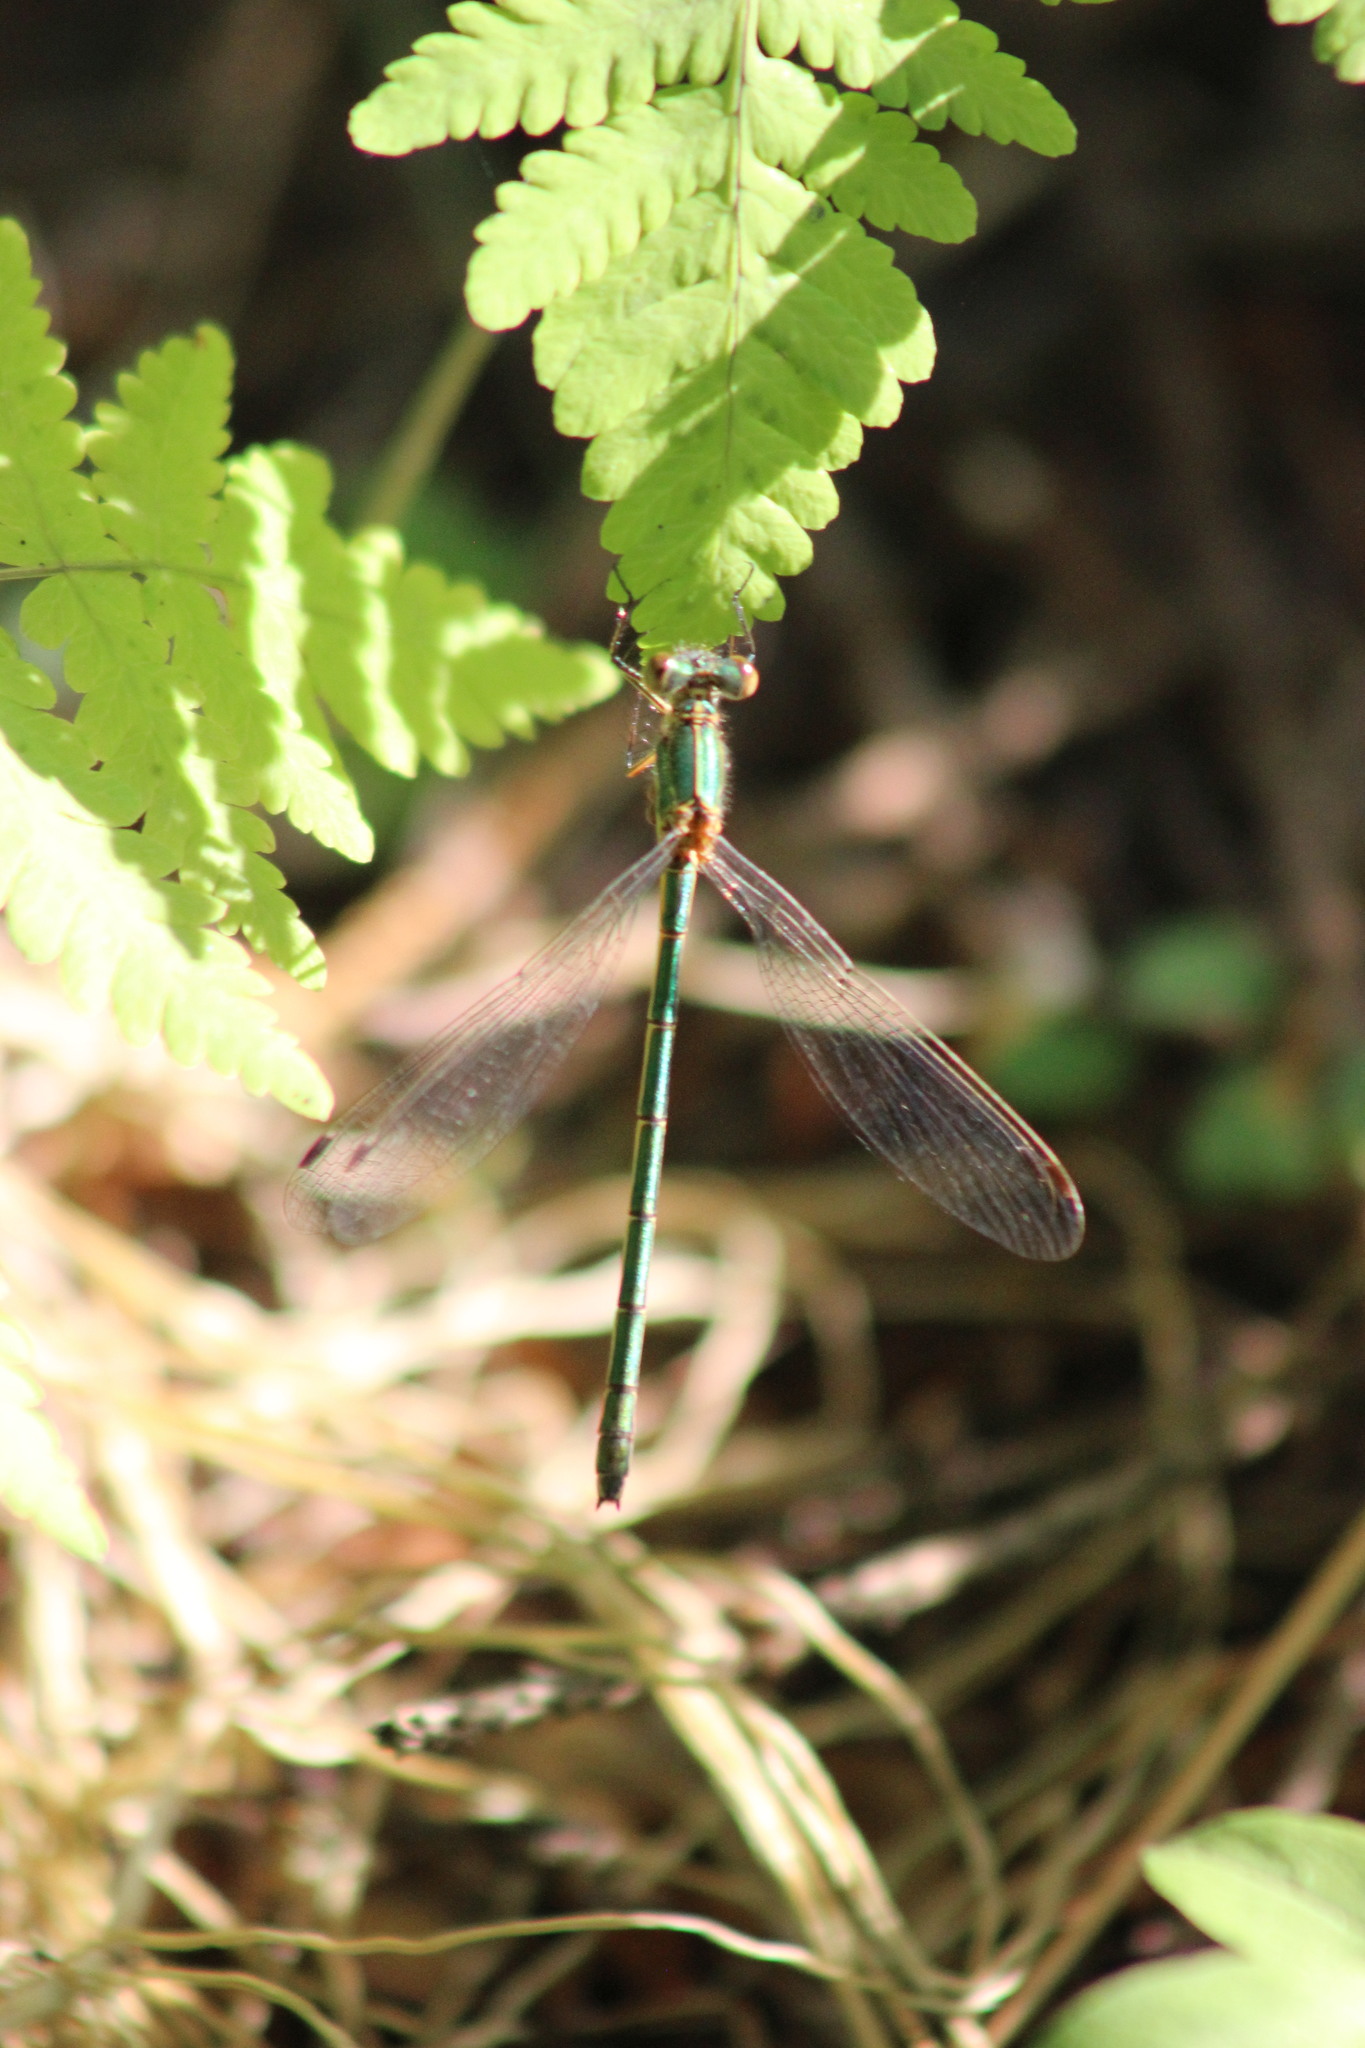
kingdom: Animalia
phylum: Arthropoda
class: Insecta
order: Odonata
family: Lestidae
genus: Lestes
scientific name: Lestes sponsa
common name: Common spreadwing
